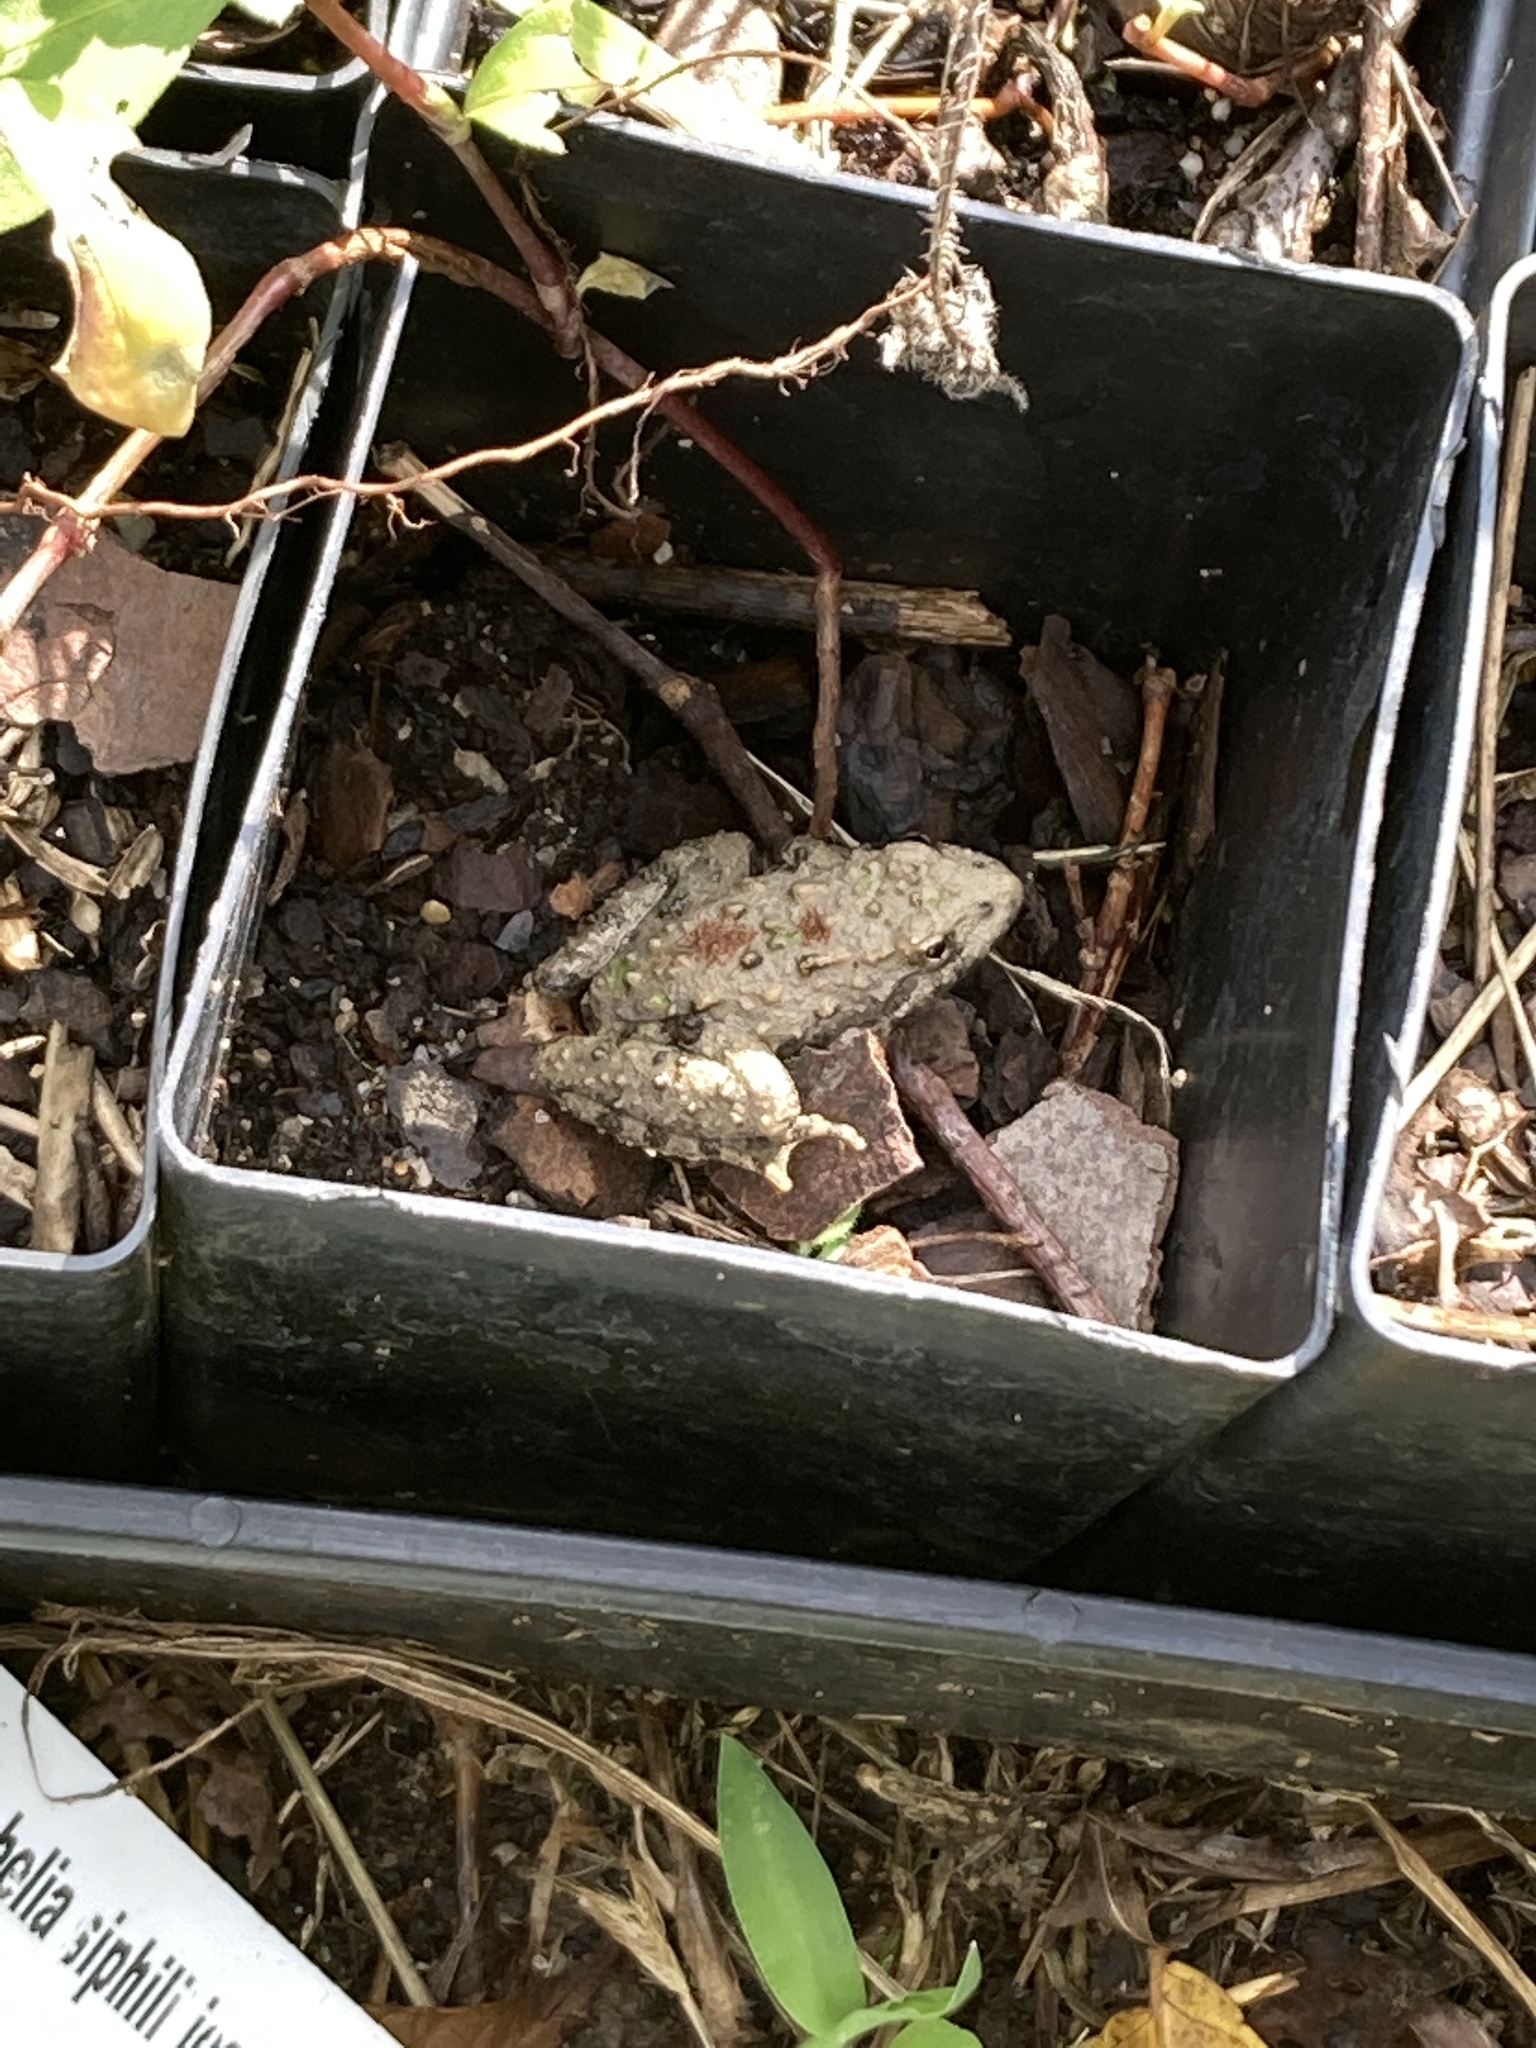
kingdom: Animalia
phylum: Chordata
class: Amphibia
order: Anura
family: Hylidae
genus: Acris
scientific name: Acris blanchardi
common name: Blanchard's cricket frog
